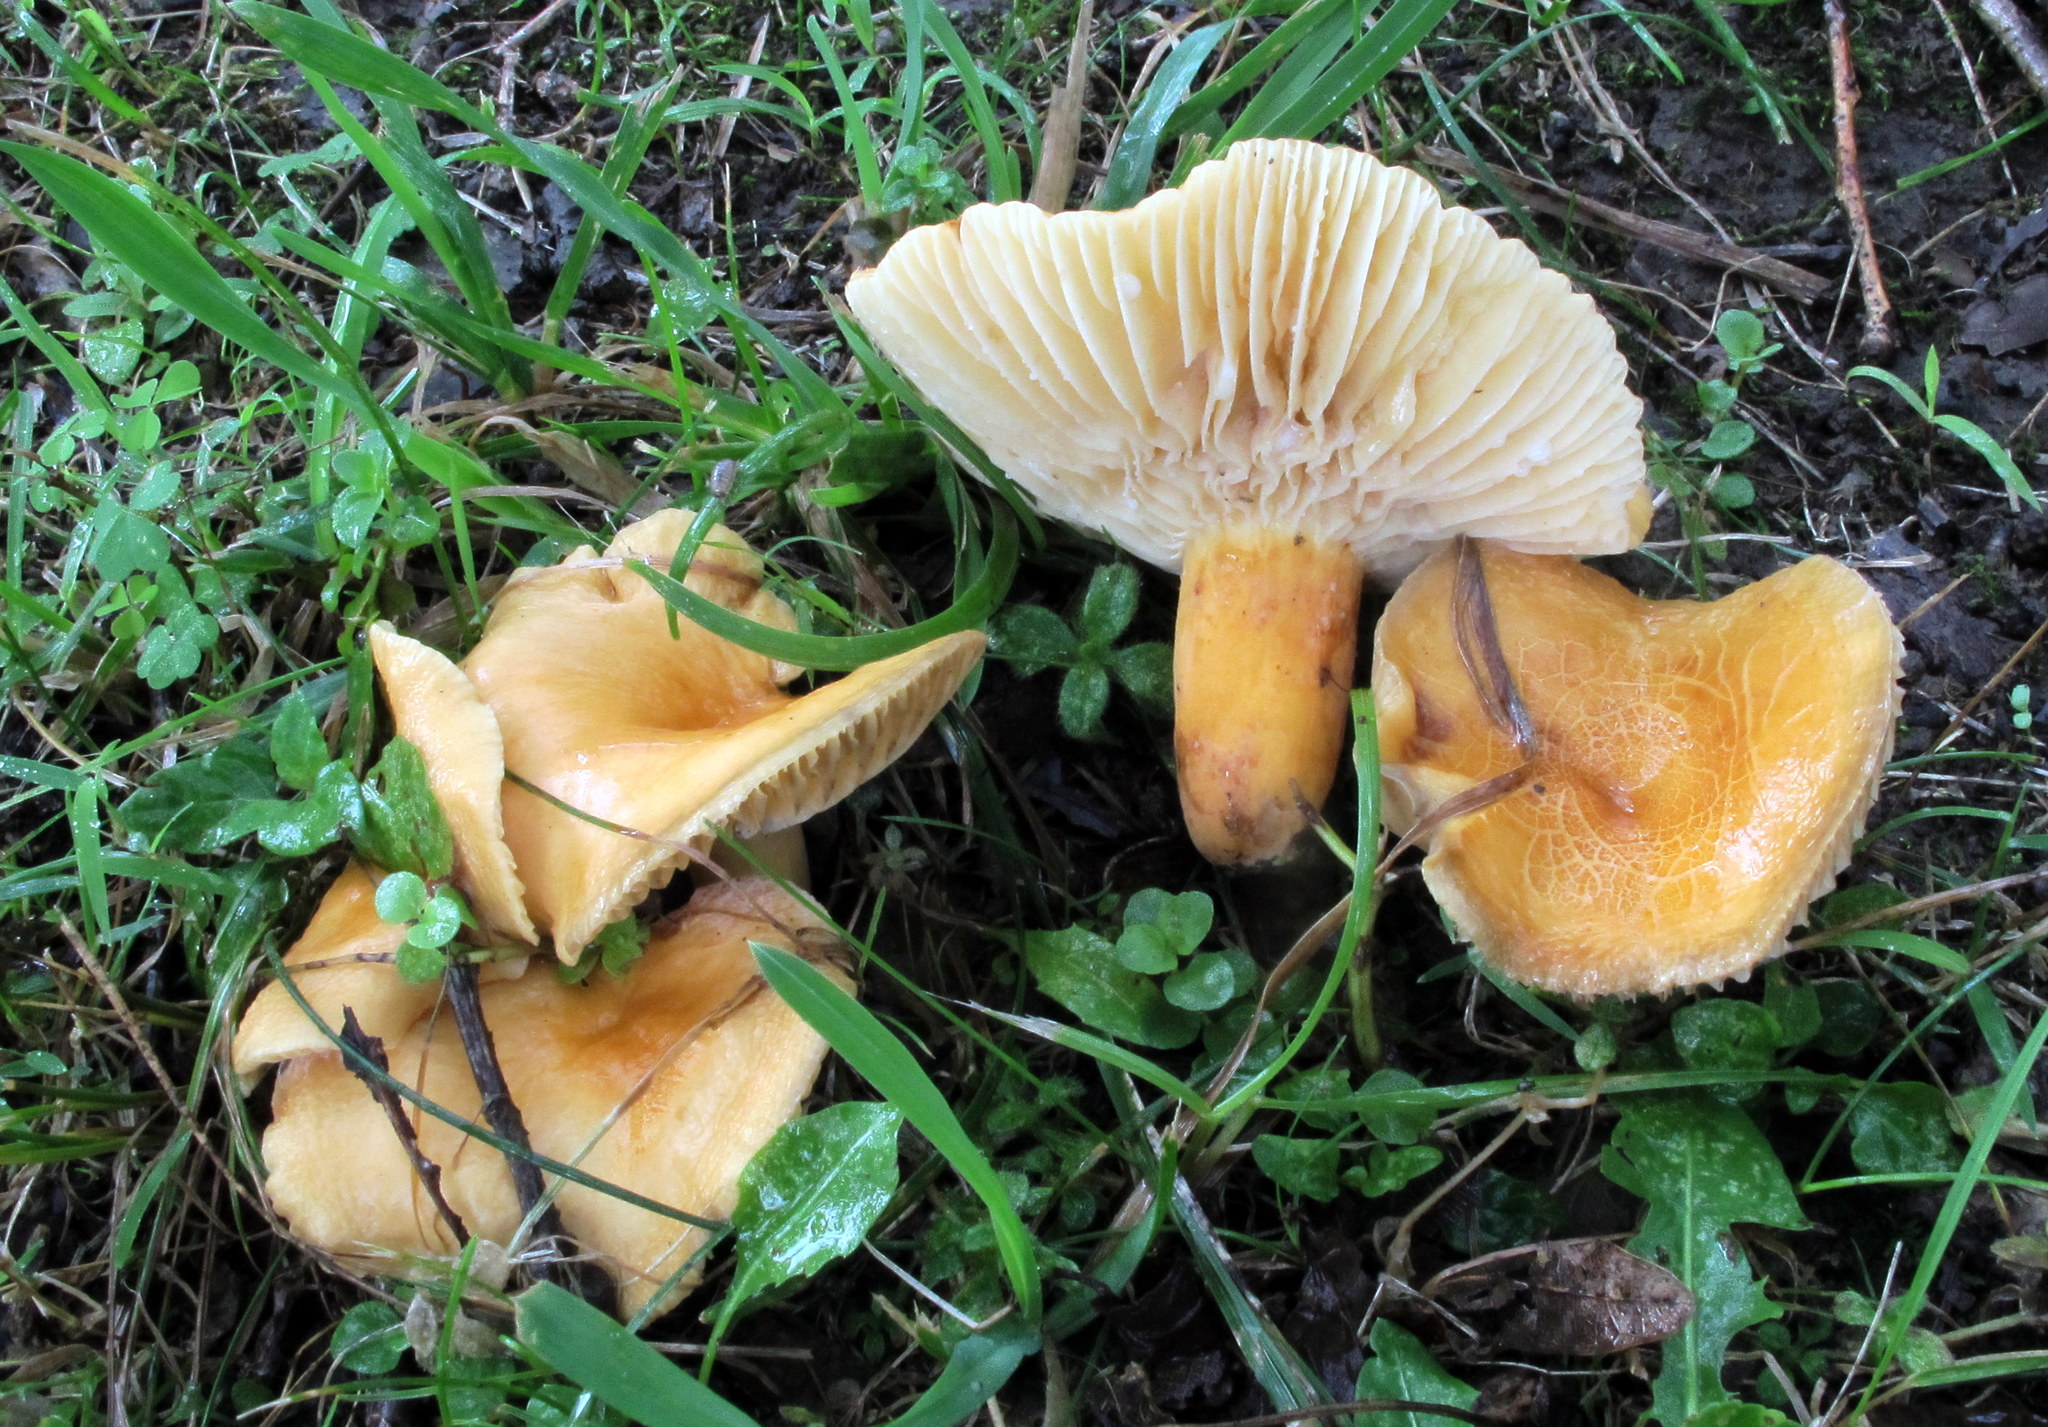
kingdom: Fungi
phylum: Basidiomycota
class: Agaricomycetes
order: Russulales
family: Russulaceae
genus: Lactarius
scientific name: Lactarius hygrophoroides
